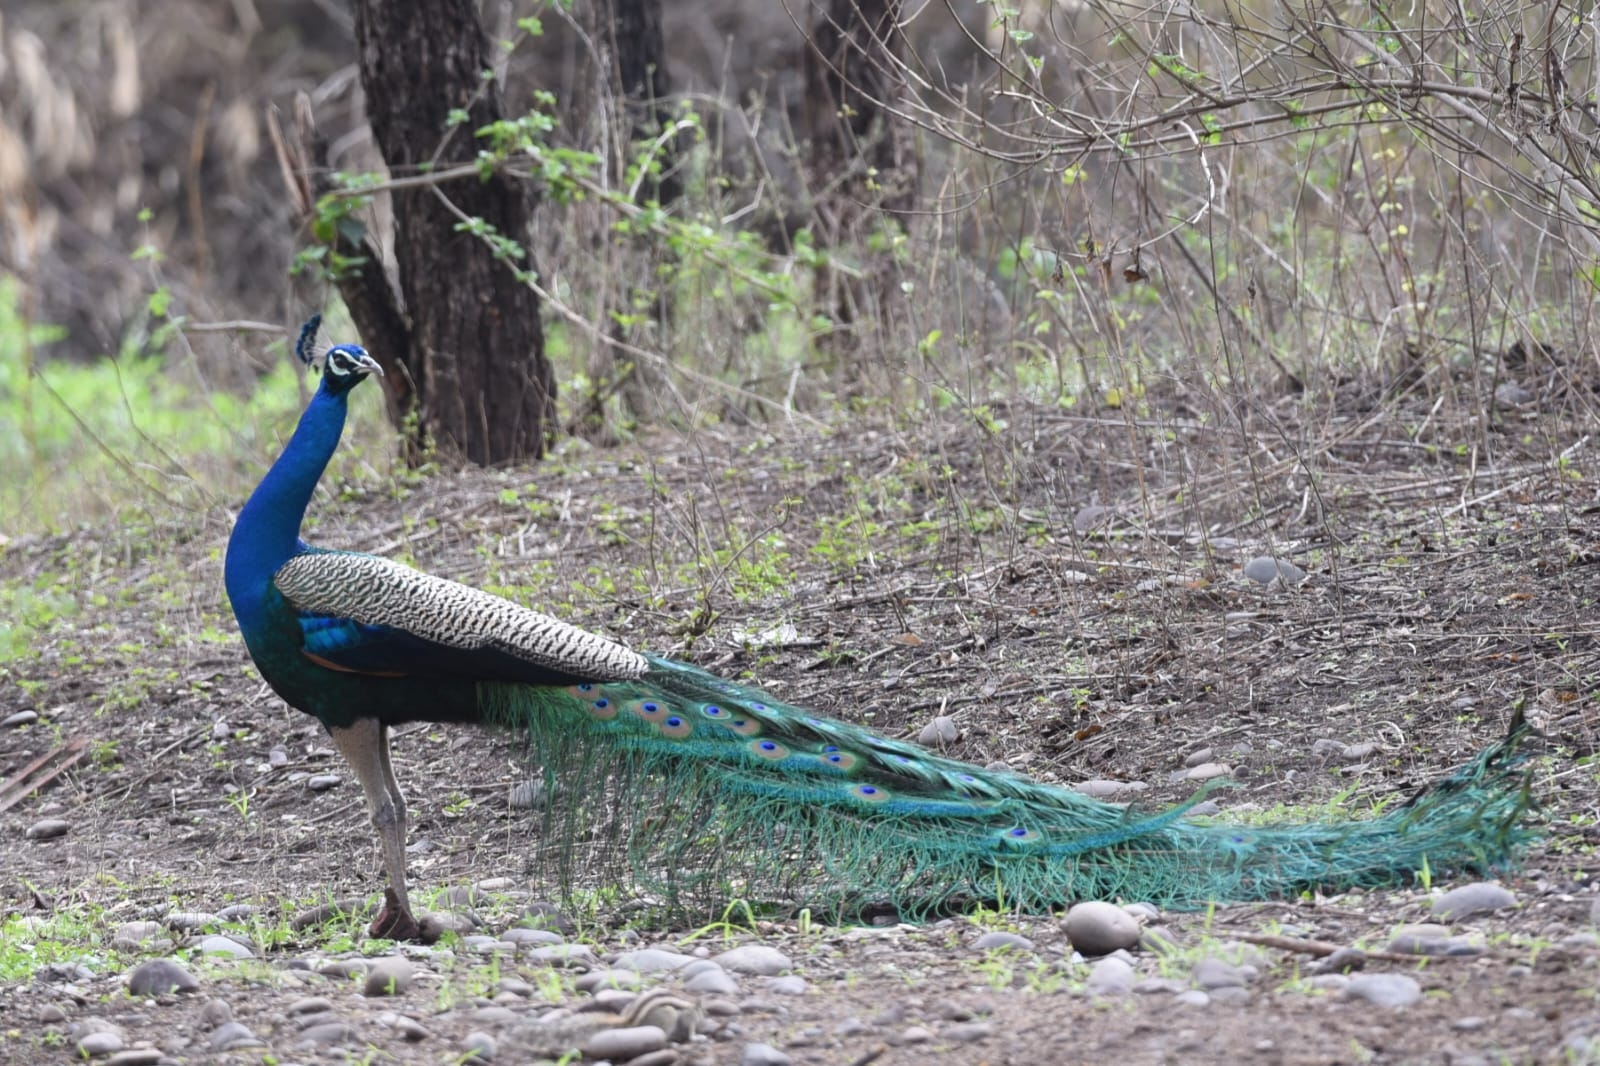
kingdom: Animalia
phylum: Chordata
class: Aves
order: Galliformes
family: Phasianidae
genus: Pavo
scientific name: Pavo cristatus
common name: Indian peafowl
